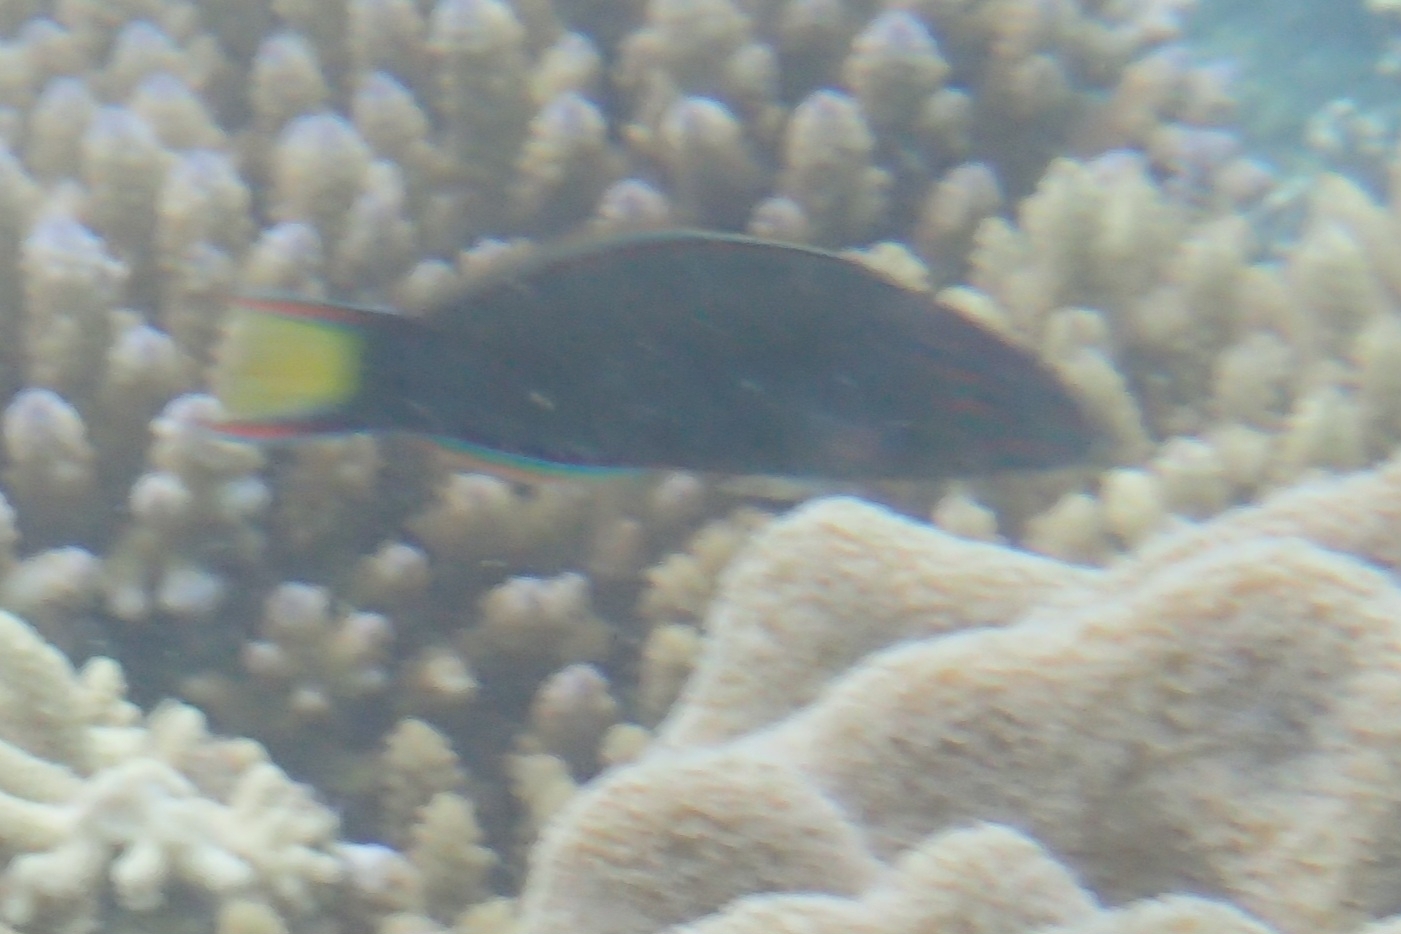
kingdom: Animalia
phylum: Chordata
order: Perciformes
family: Labridae
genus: Thalassoma
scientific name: Thalassoma lunare
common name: Blue wrasse
